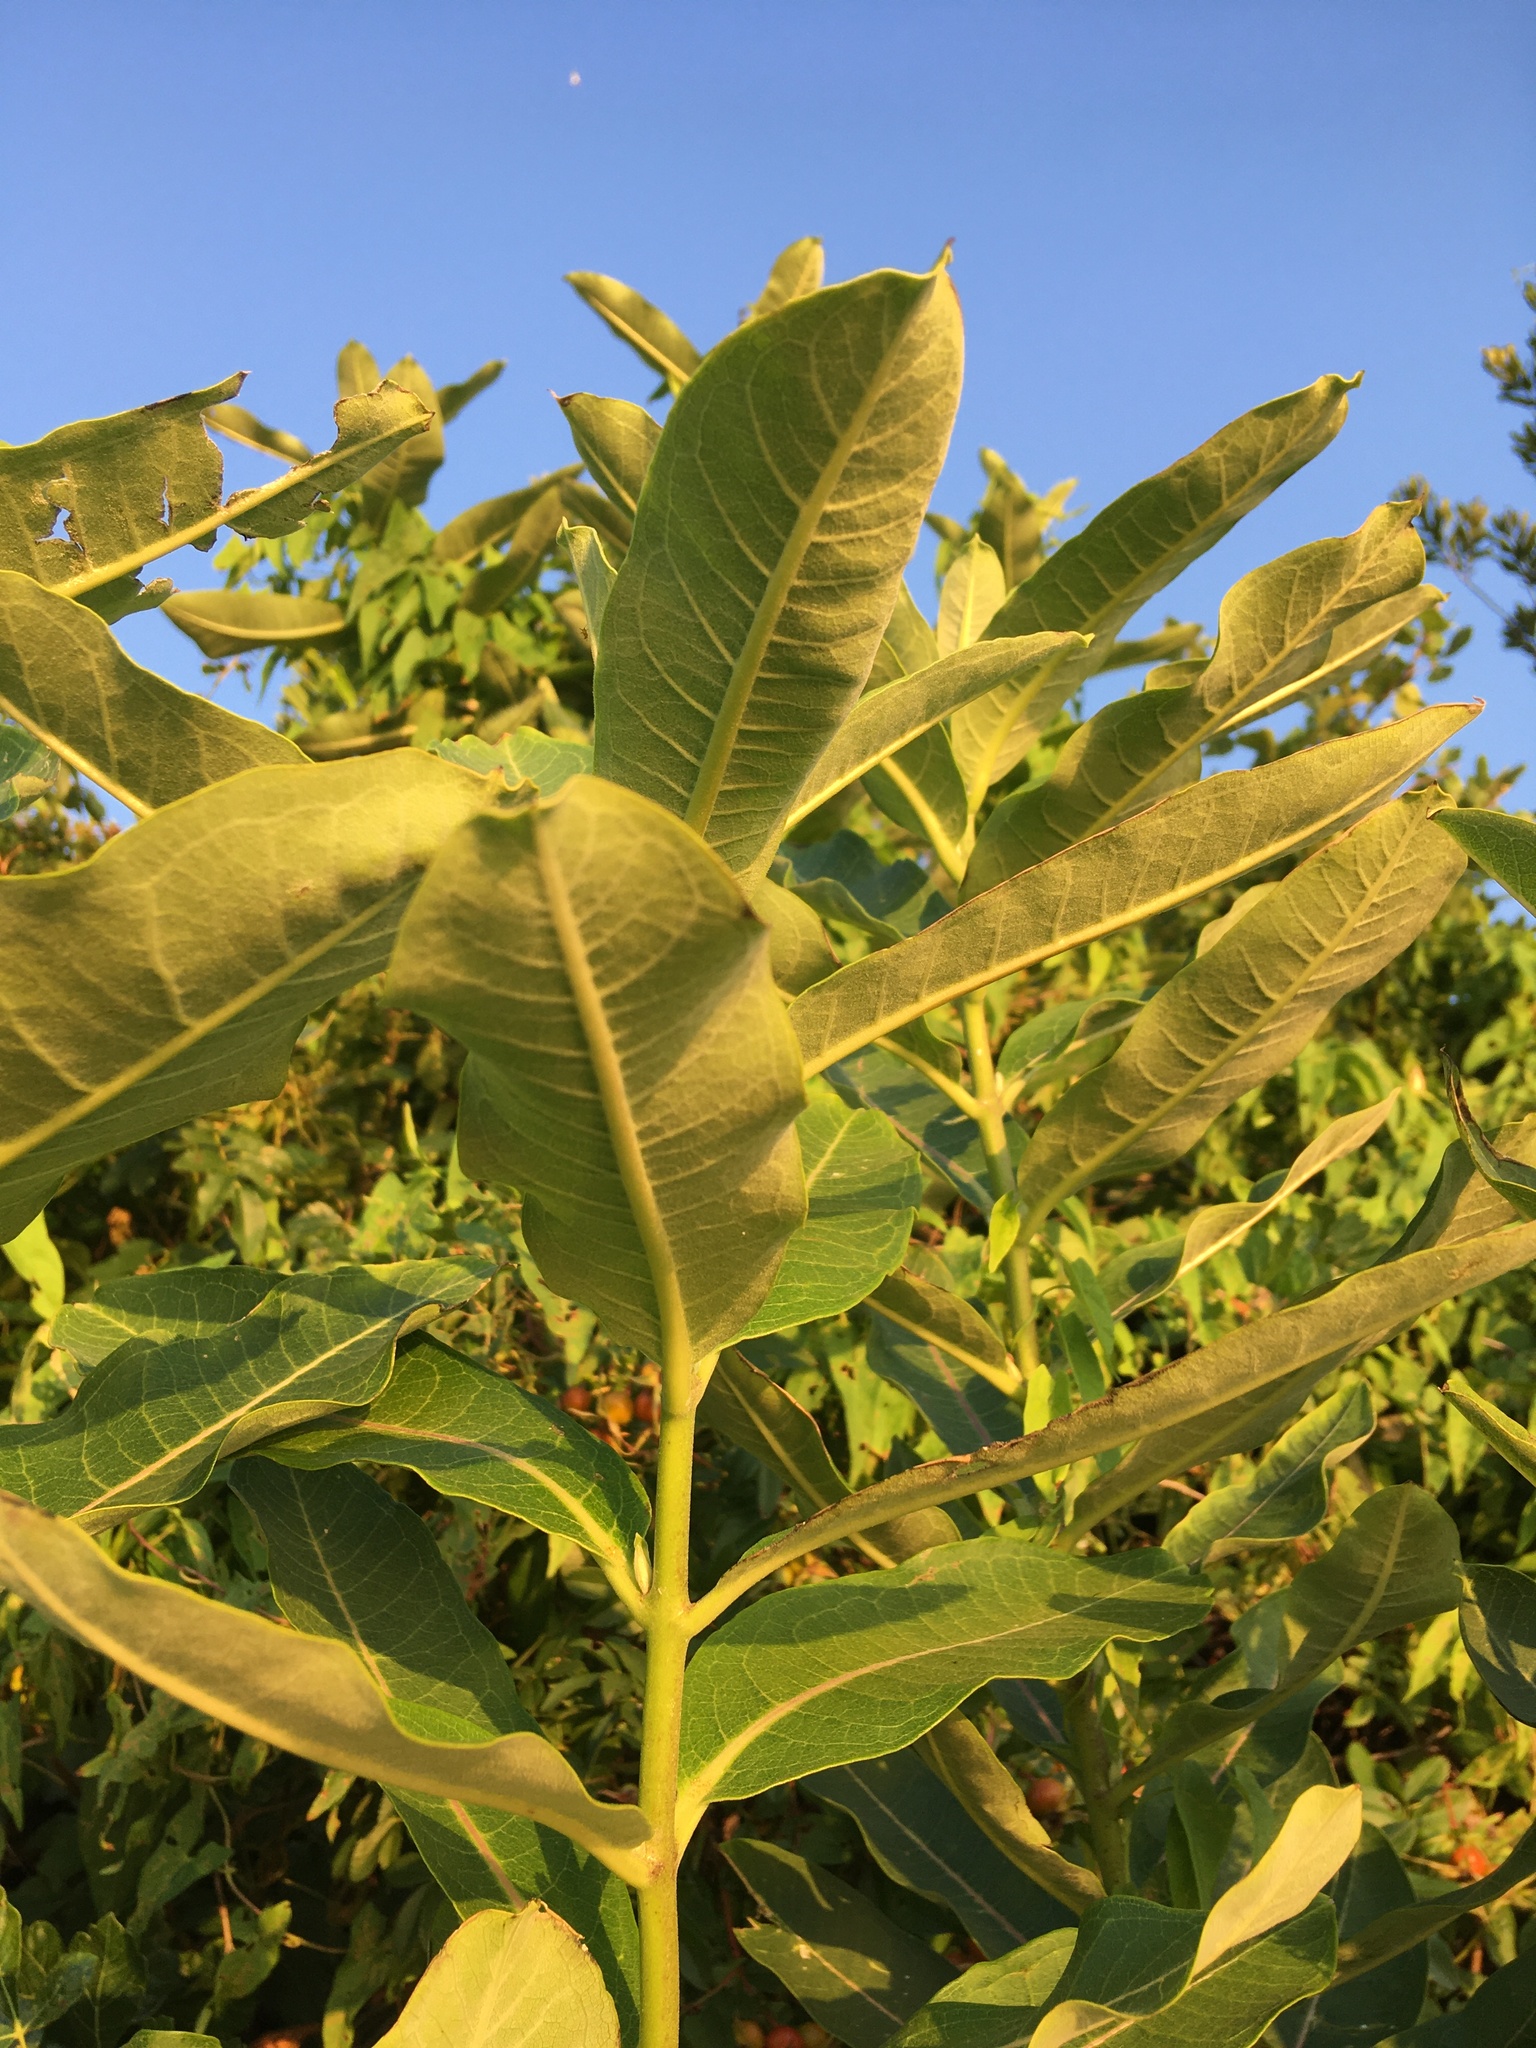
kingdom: Plantae
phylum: Tracheophyta
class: Magnoliopsida
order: Gentianales
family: Apocynaceae
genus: Asclepias
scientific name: Asclepias syriaca
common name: Common milkweed
